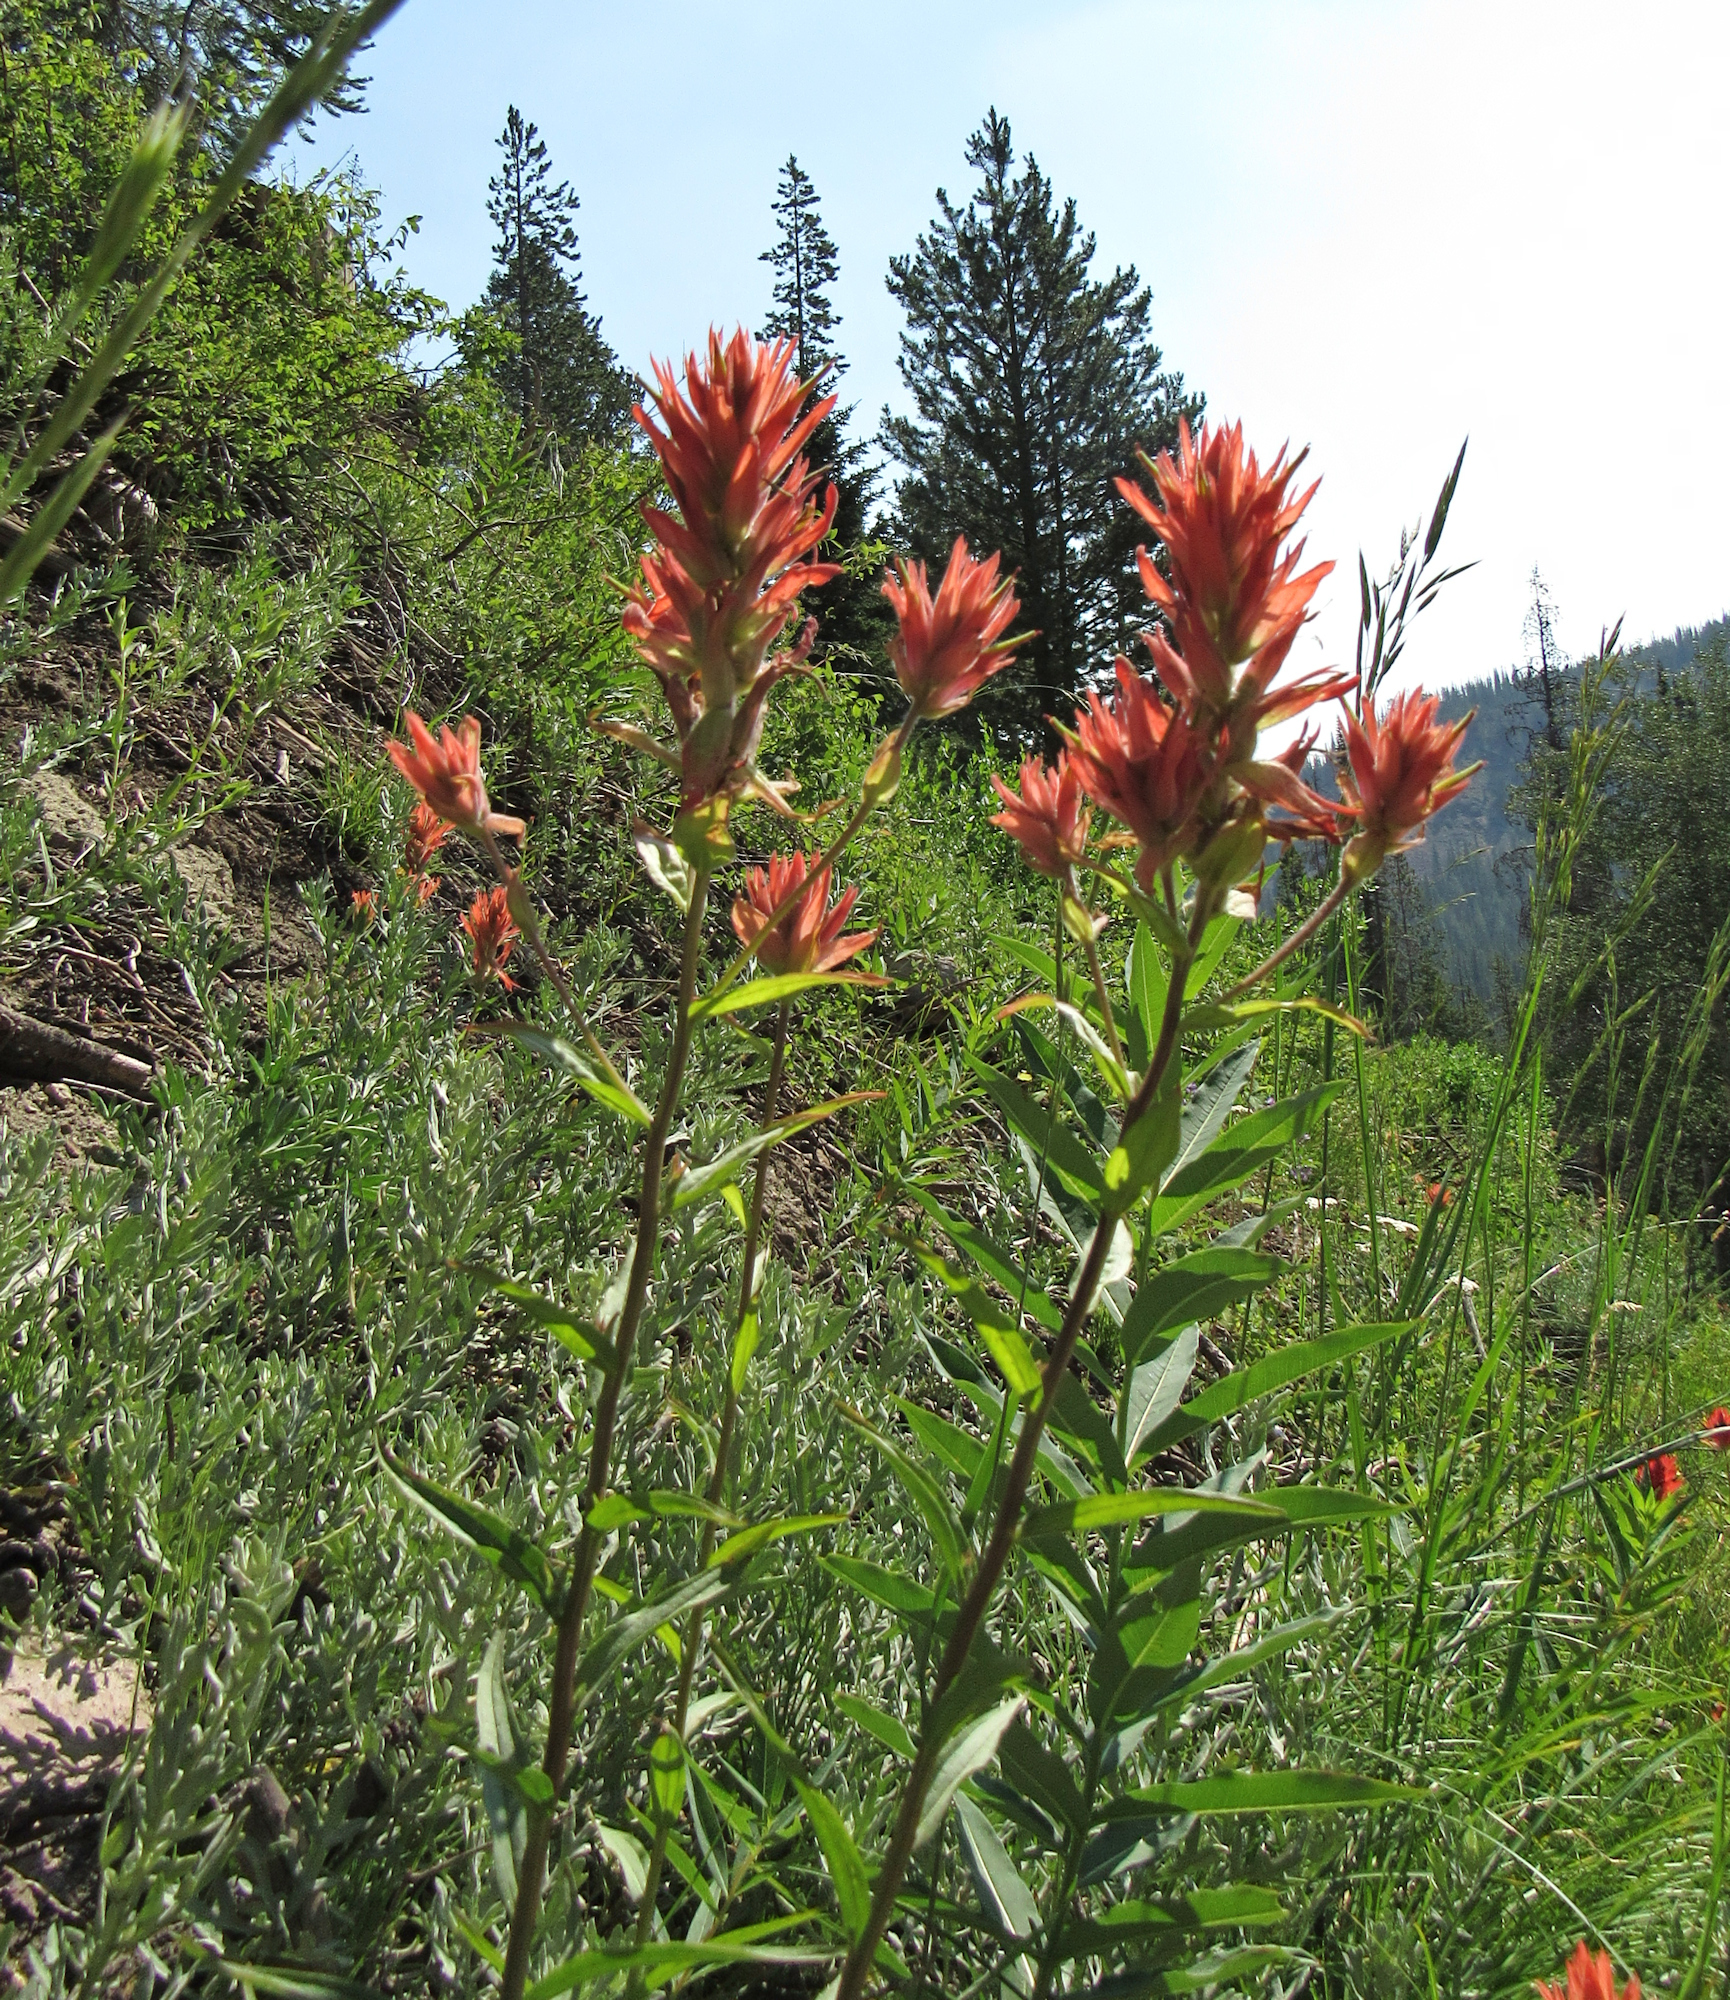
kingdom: Plantae
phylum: Tracheophyta
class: Magnoliopsida
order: Lamiales
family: Orobanchaceae
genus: Castilleja
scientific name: Castilleja miniata
